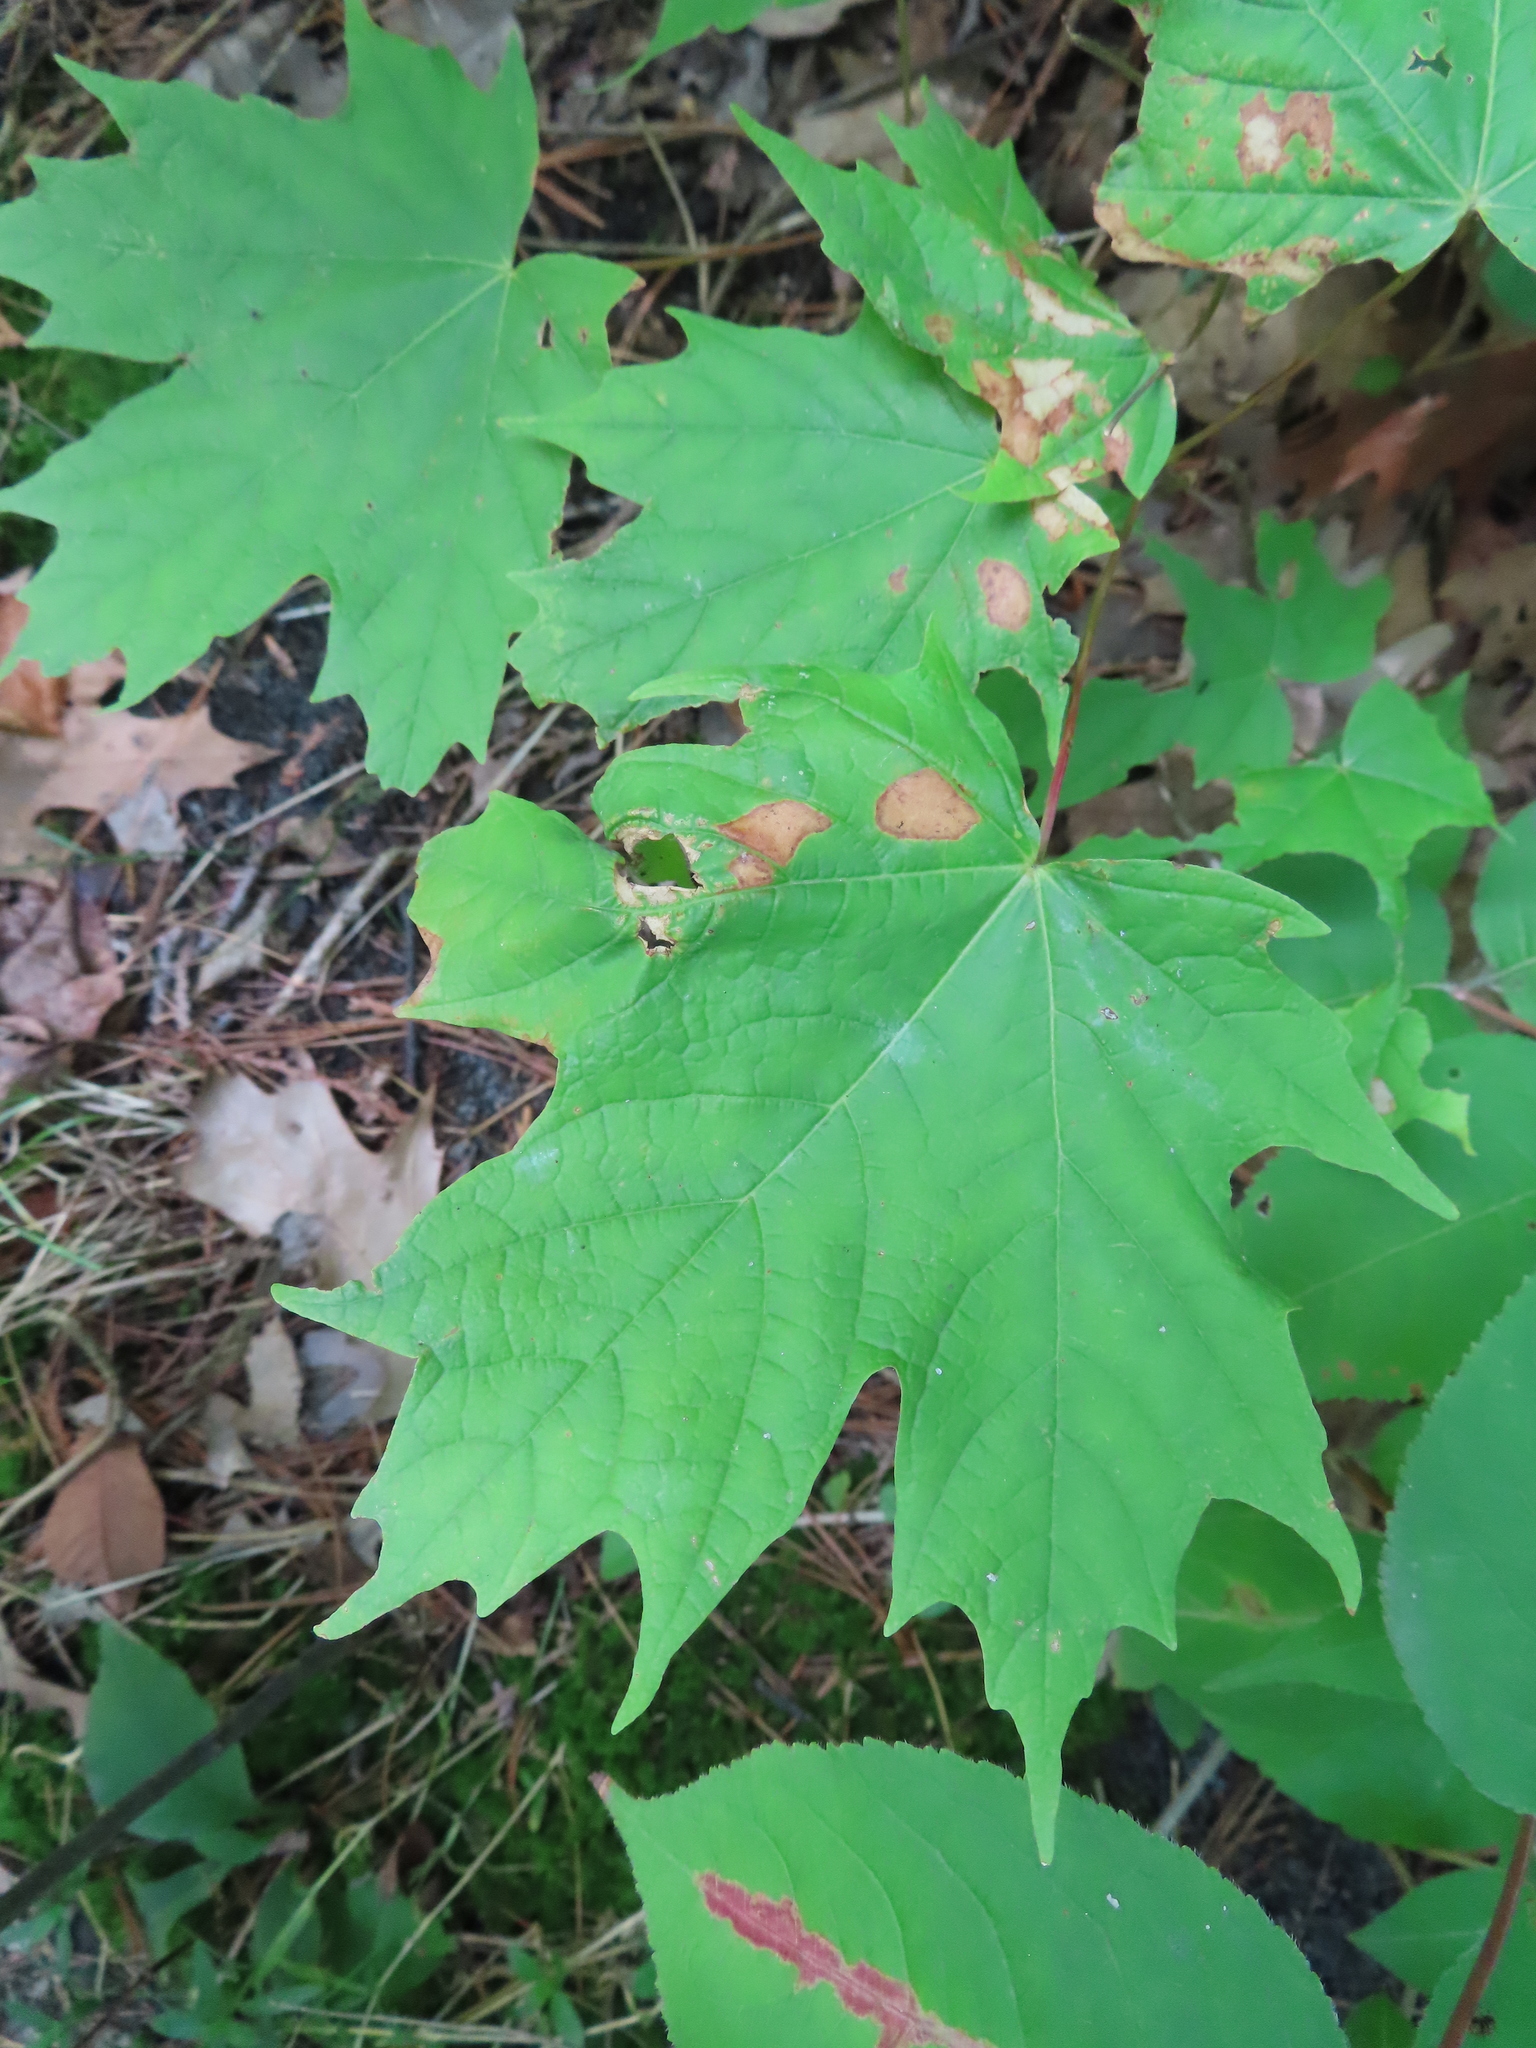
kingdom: Plantae
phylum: Tracheophyta
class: Magnoliopsida
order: Sapindales
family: Sapindaceae
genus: Acer
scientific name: Acer saccharum
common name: Sugar maple
